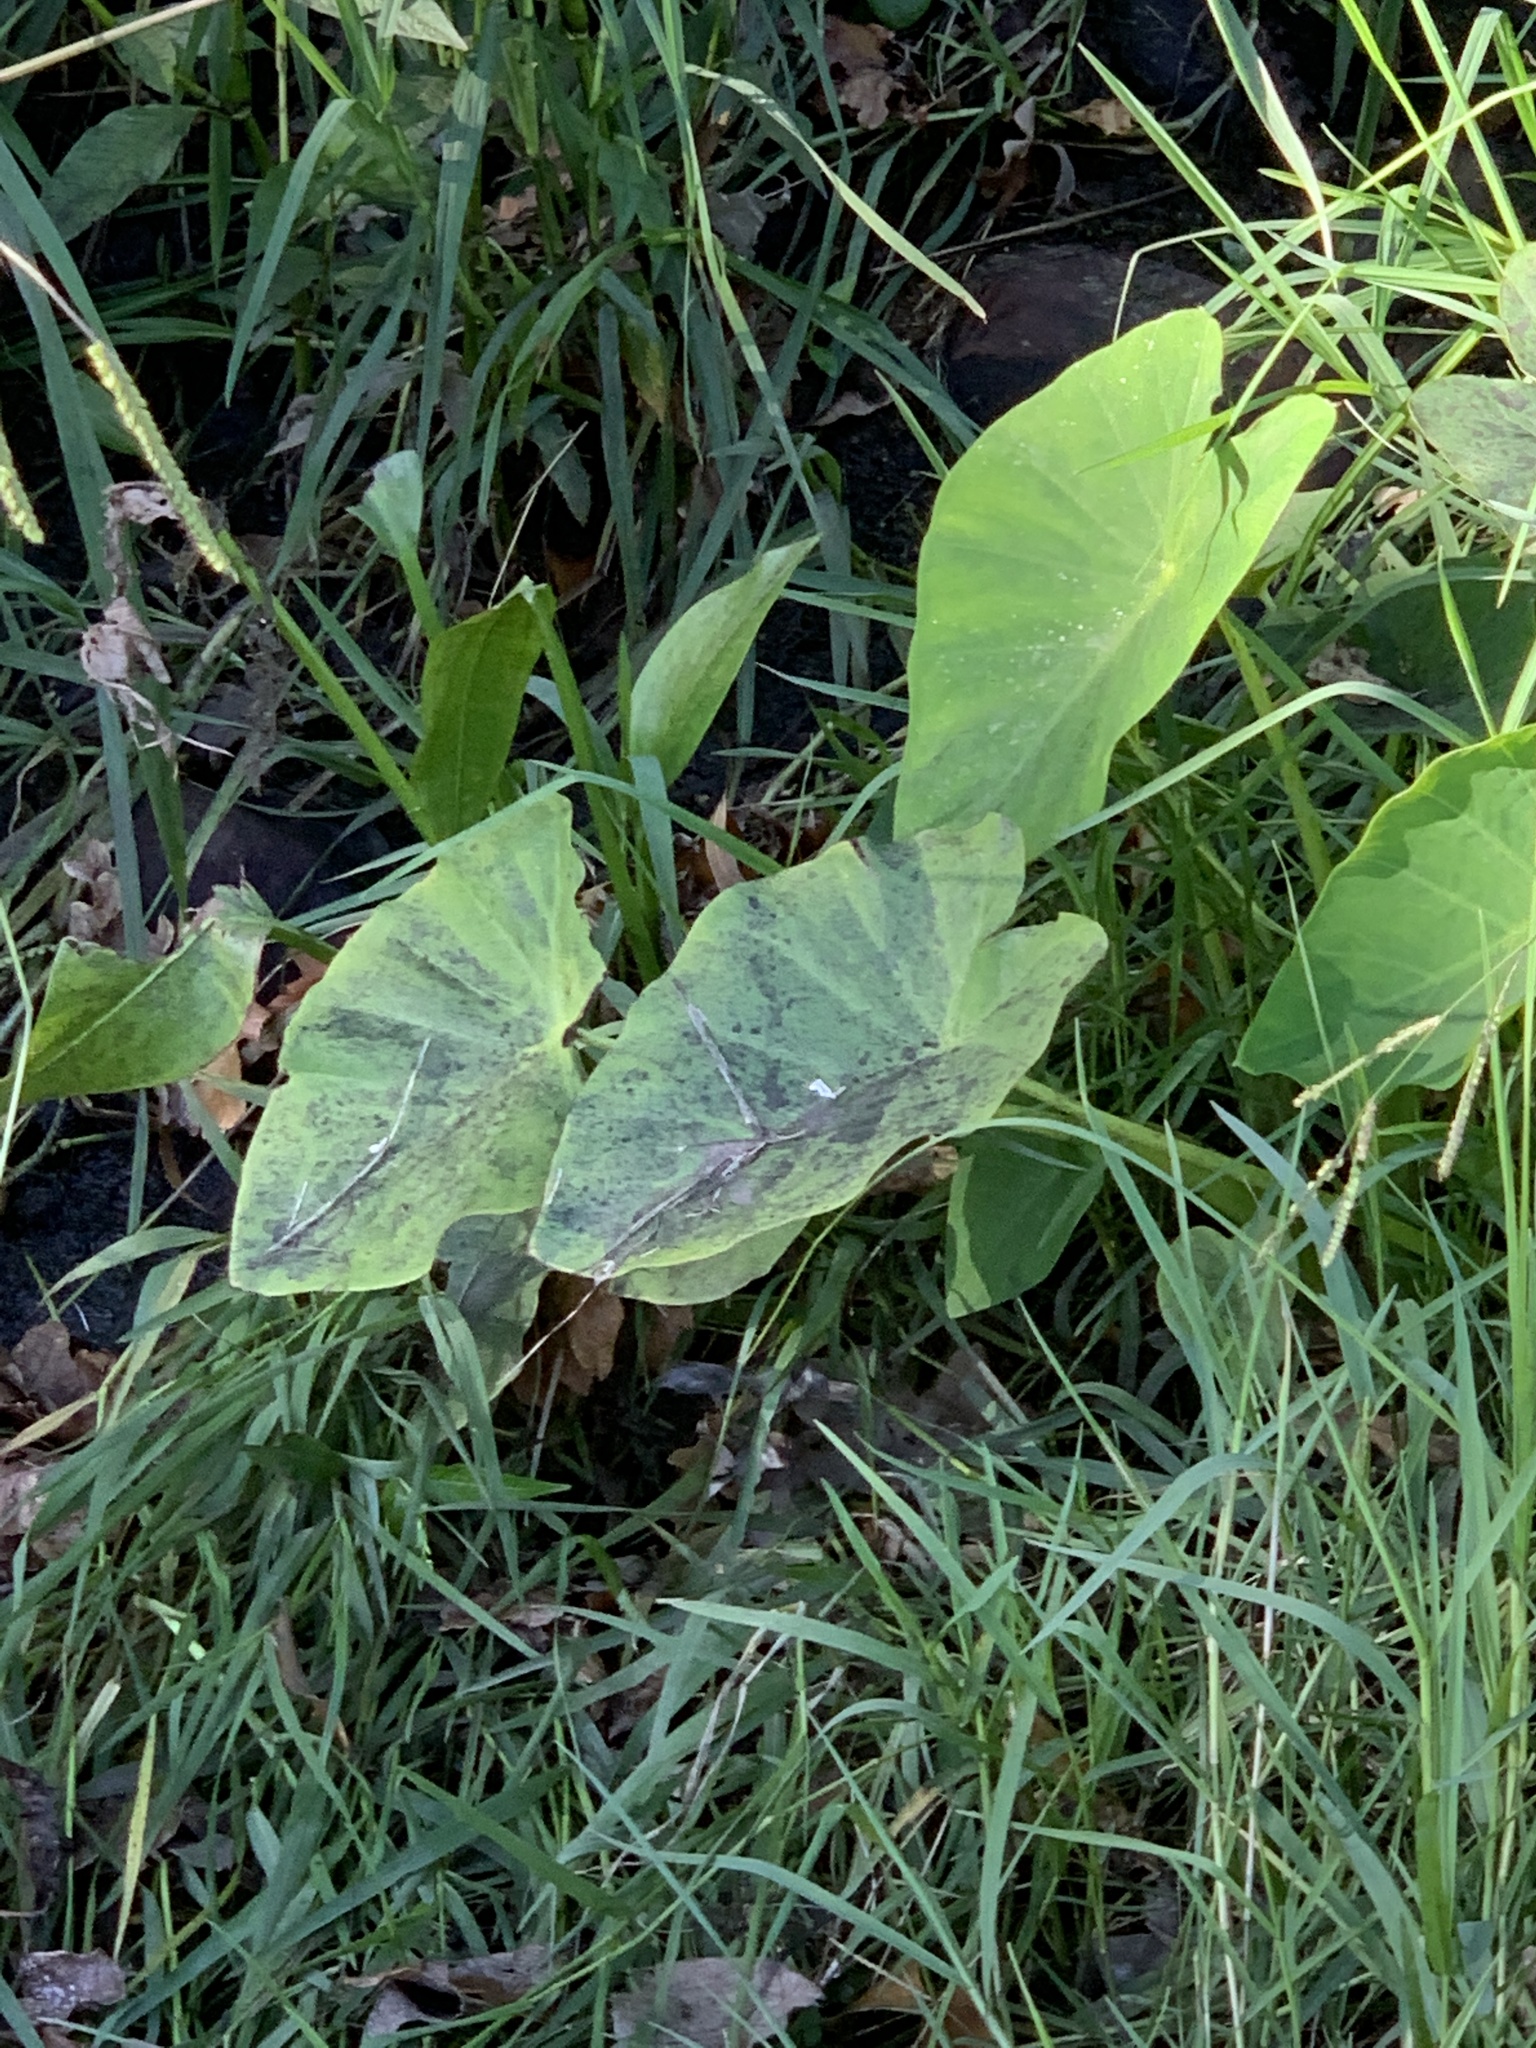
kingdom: Plantae
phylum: Tracheophyta
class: Liliopsida
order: Alismatales
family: Araceae
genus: Colocasia
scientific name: Colocasia esculenta
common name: Taro
